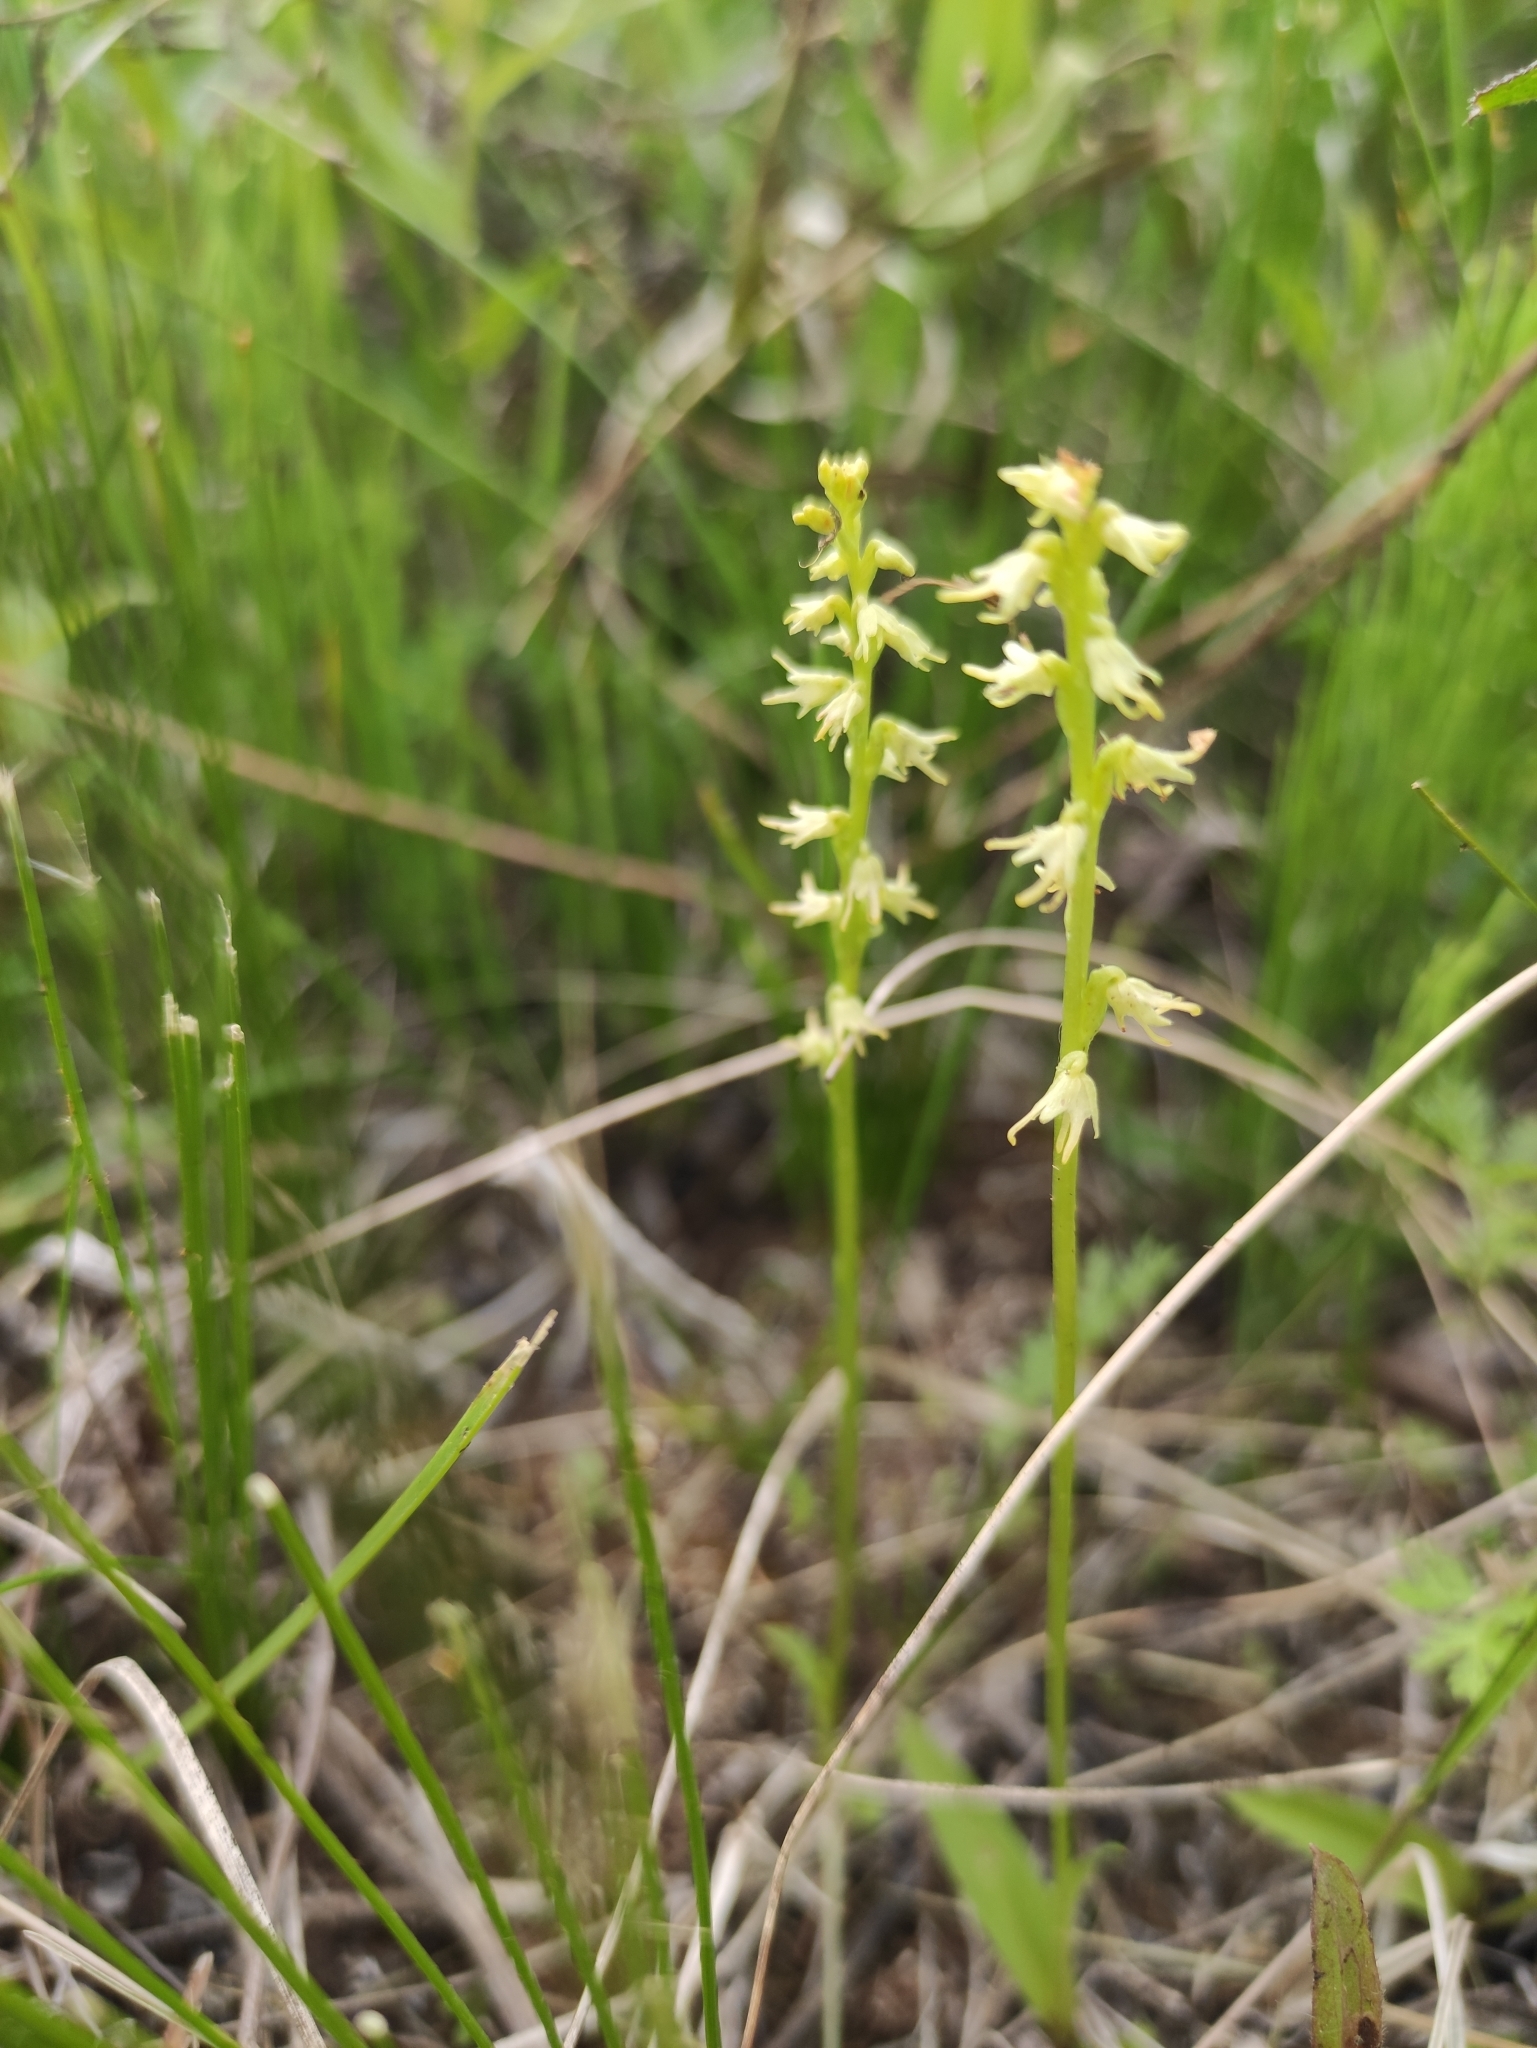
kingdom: Plantae
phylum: Tracheophyta
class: Liliopsida
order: Asparagales
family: Orchidaceae
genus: Herminium
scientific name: Herminium monorchis
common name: Musk orchid
